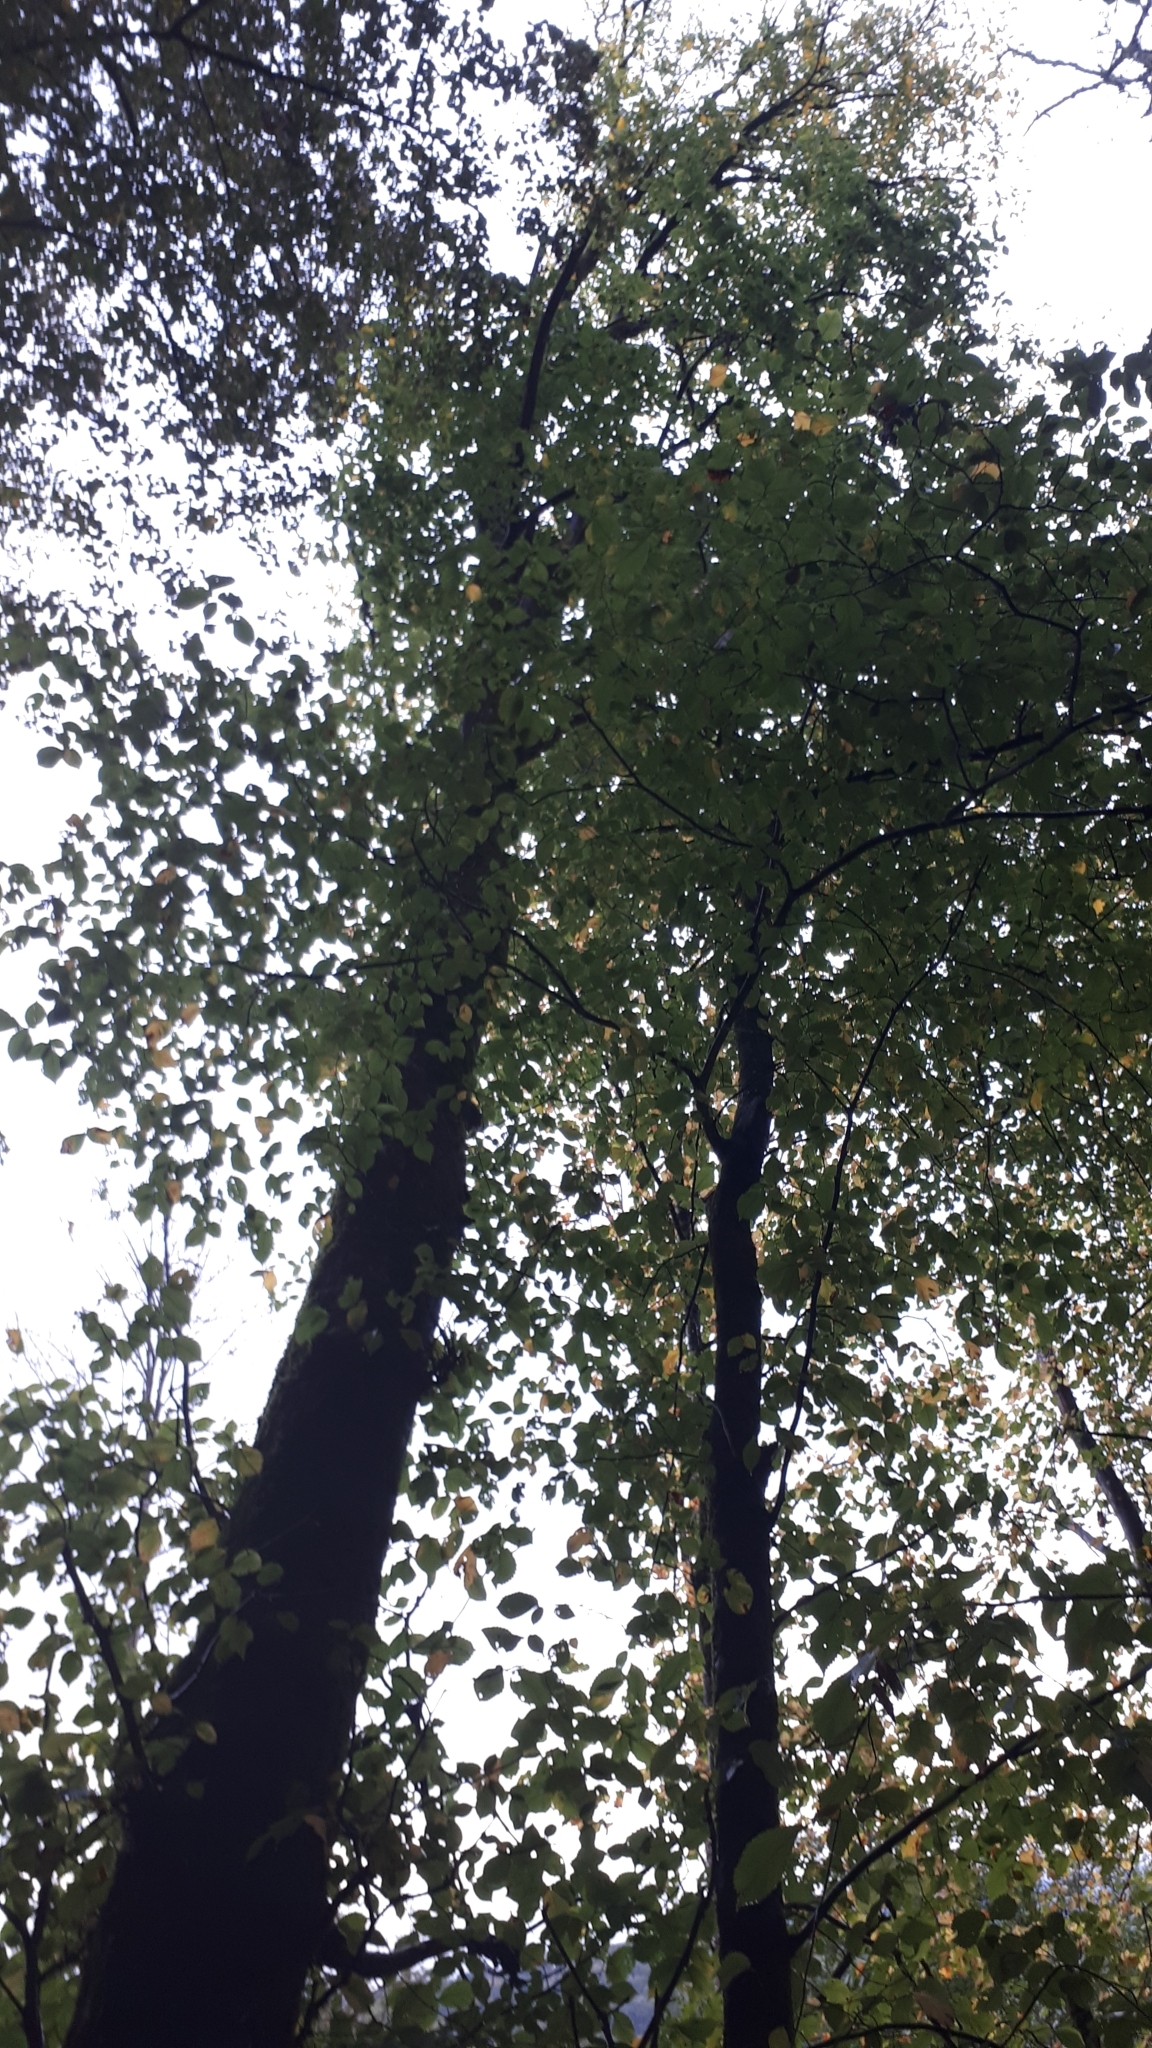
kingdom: Plantae
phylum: Tracheophyta
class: Magnoliopsida
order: Rosales
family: Ulmaceae
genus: Ulmus
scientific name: Ulmus laevis
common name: European white-elm
